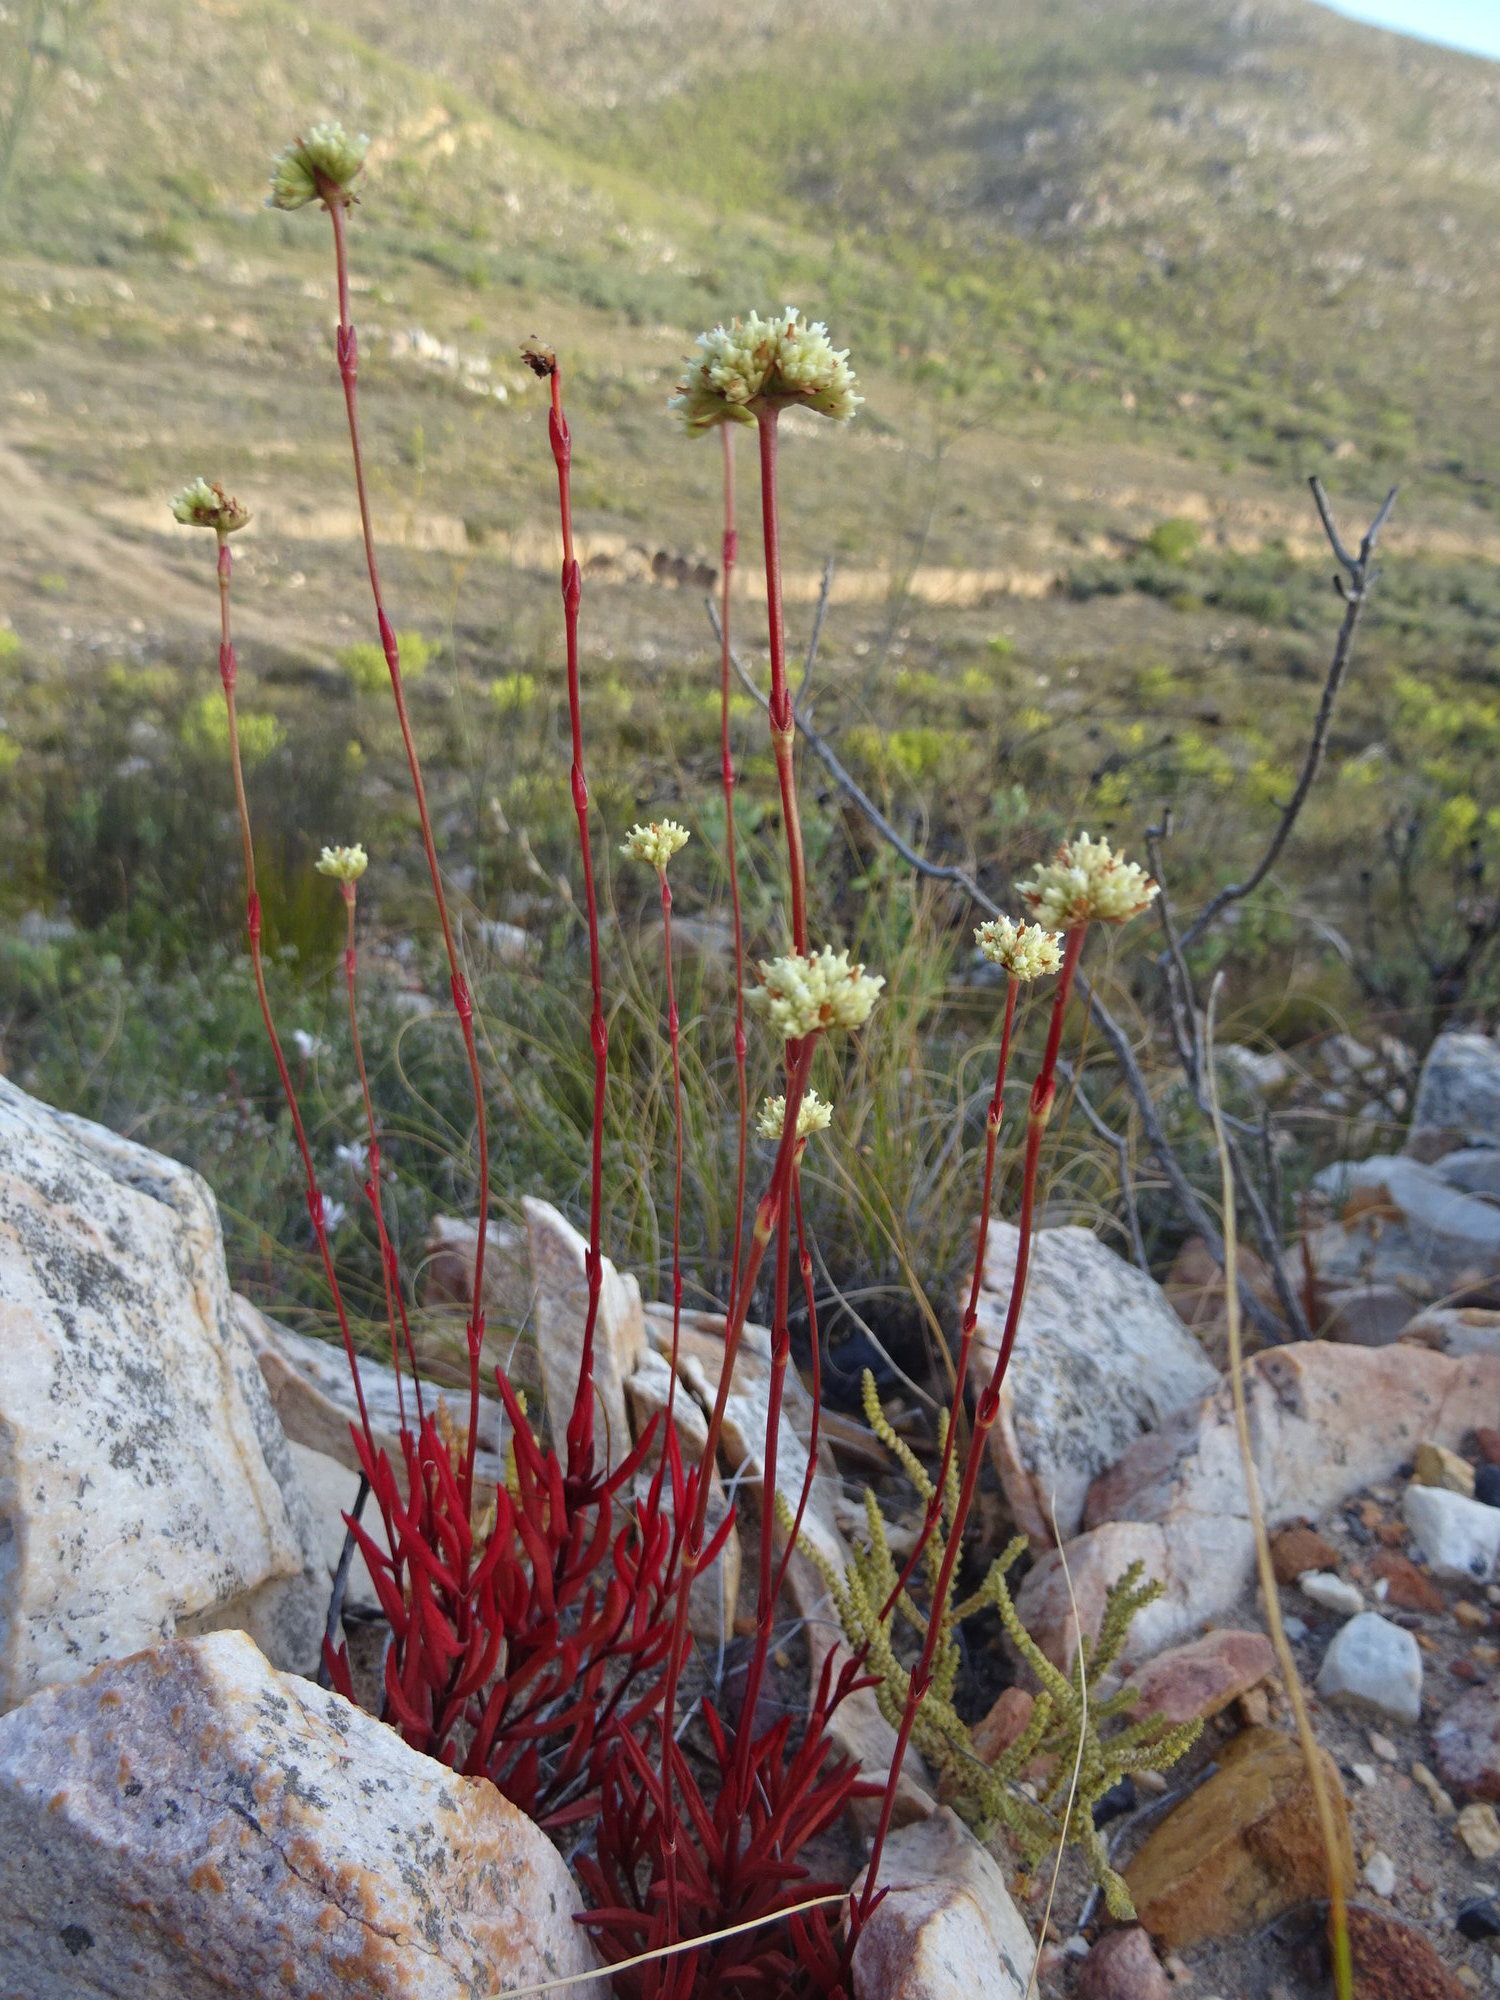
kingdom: Plantae
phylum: Tracheophyta
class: Magnoliopsida
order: Saxifragales
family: Crassulaceae
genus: Crassula
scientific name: Crassula atropurpurea
